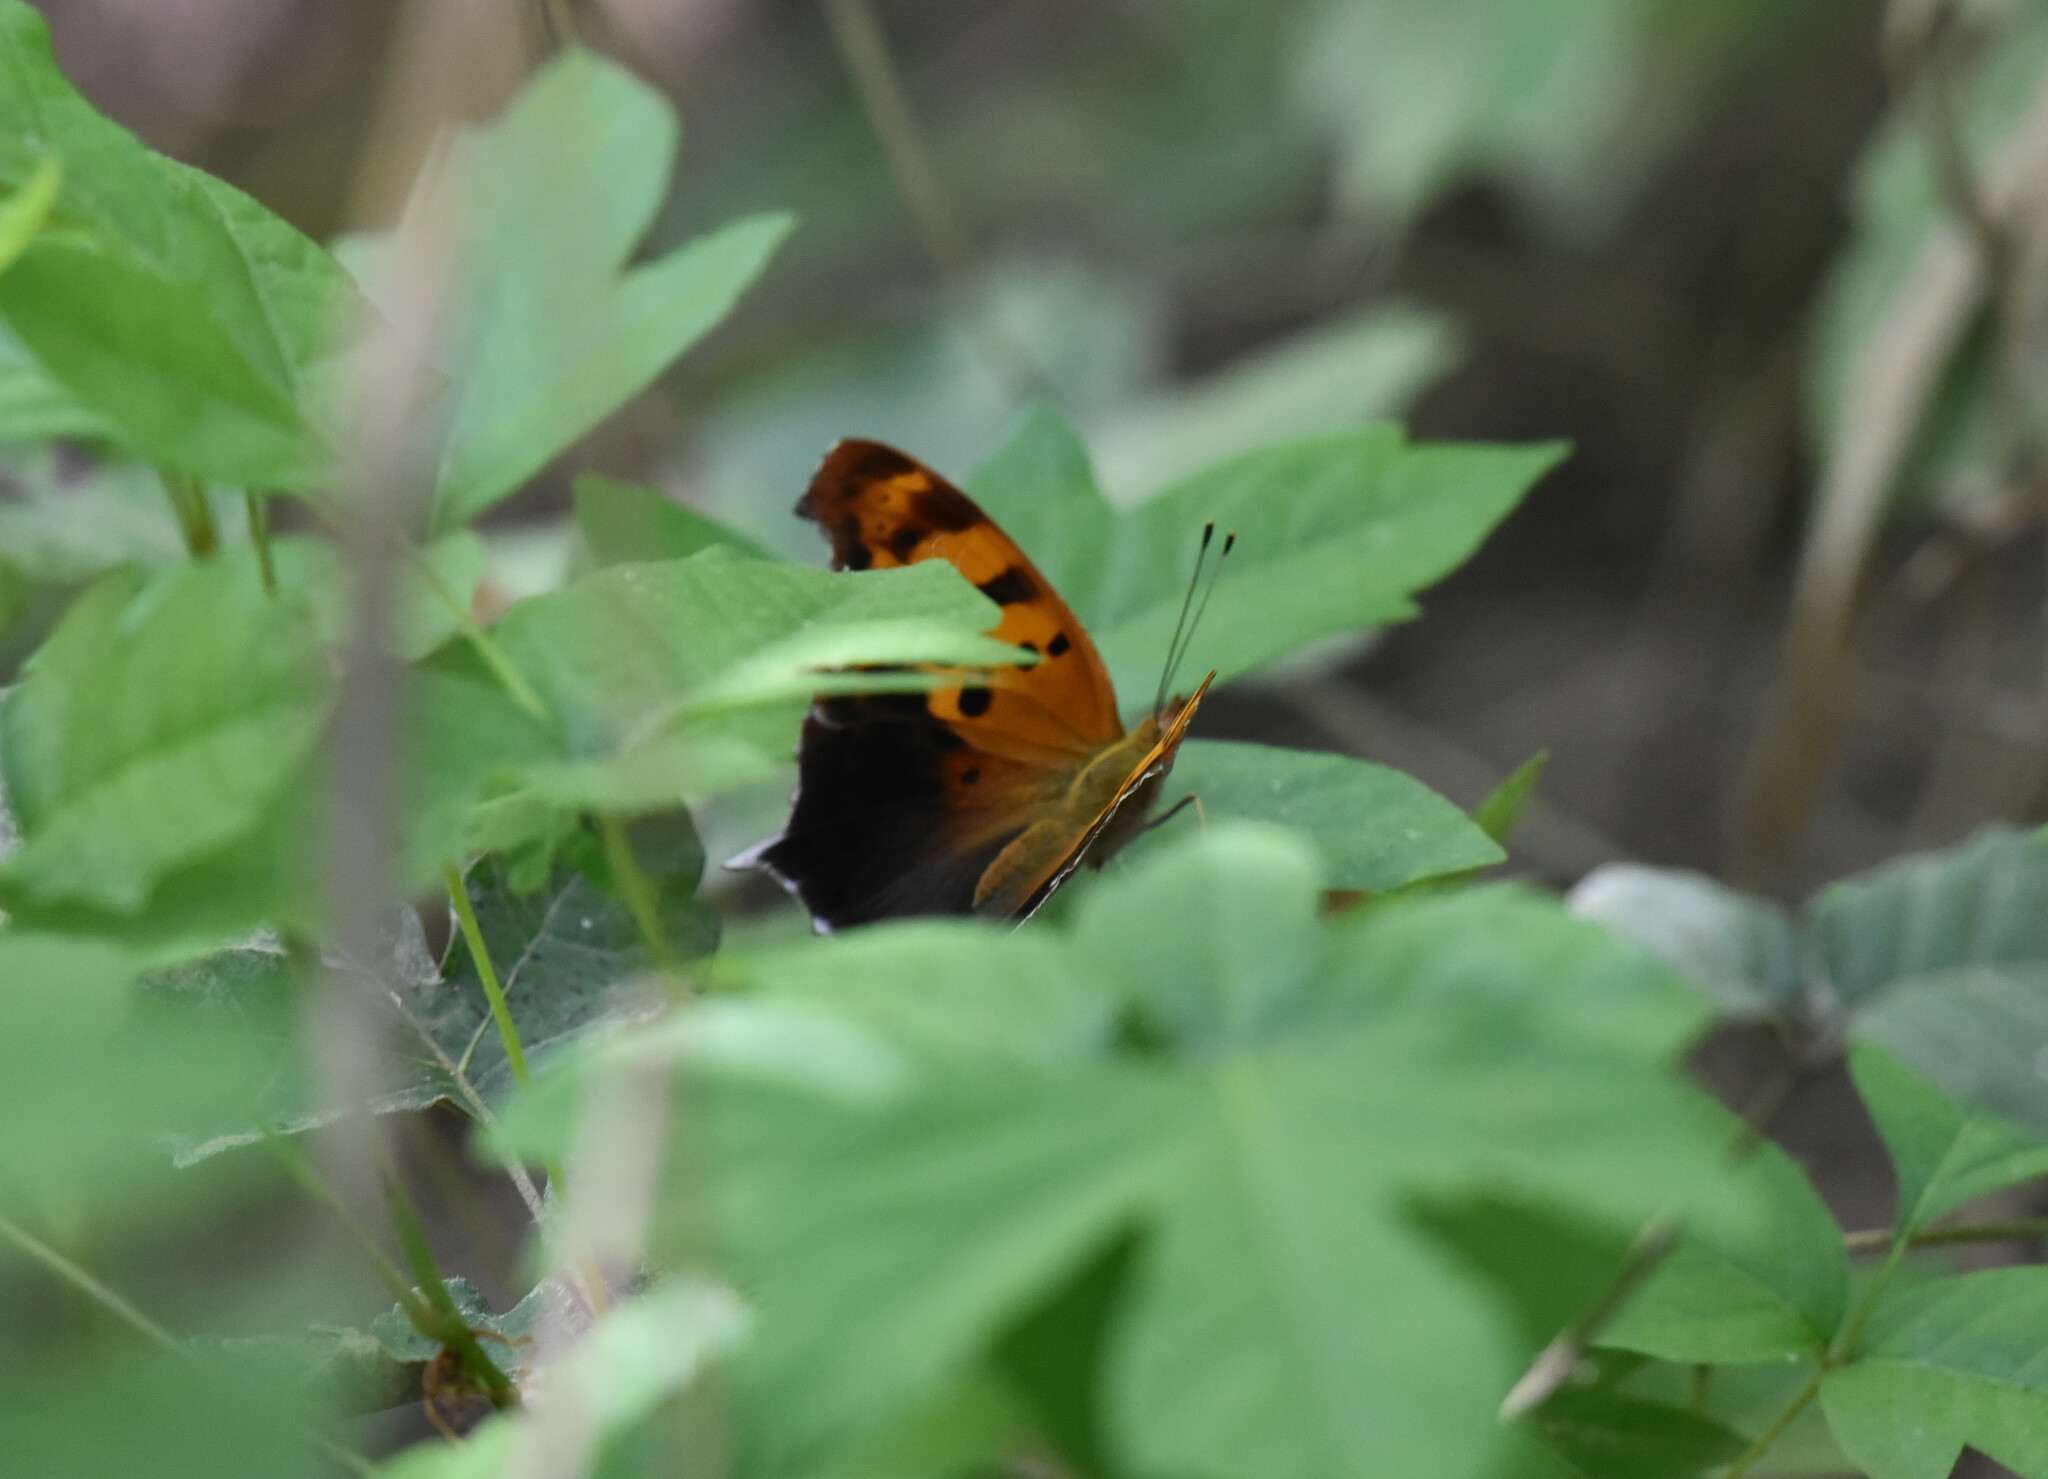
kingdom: Animalia
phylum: Arthropoda
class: Insecta
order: Lepidoptera
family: Nymphalidae
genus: Polygonia
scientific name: Polygonia interrogationis
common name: Question mark
